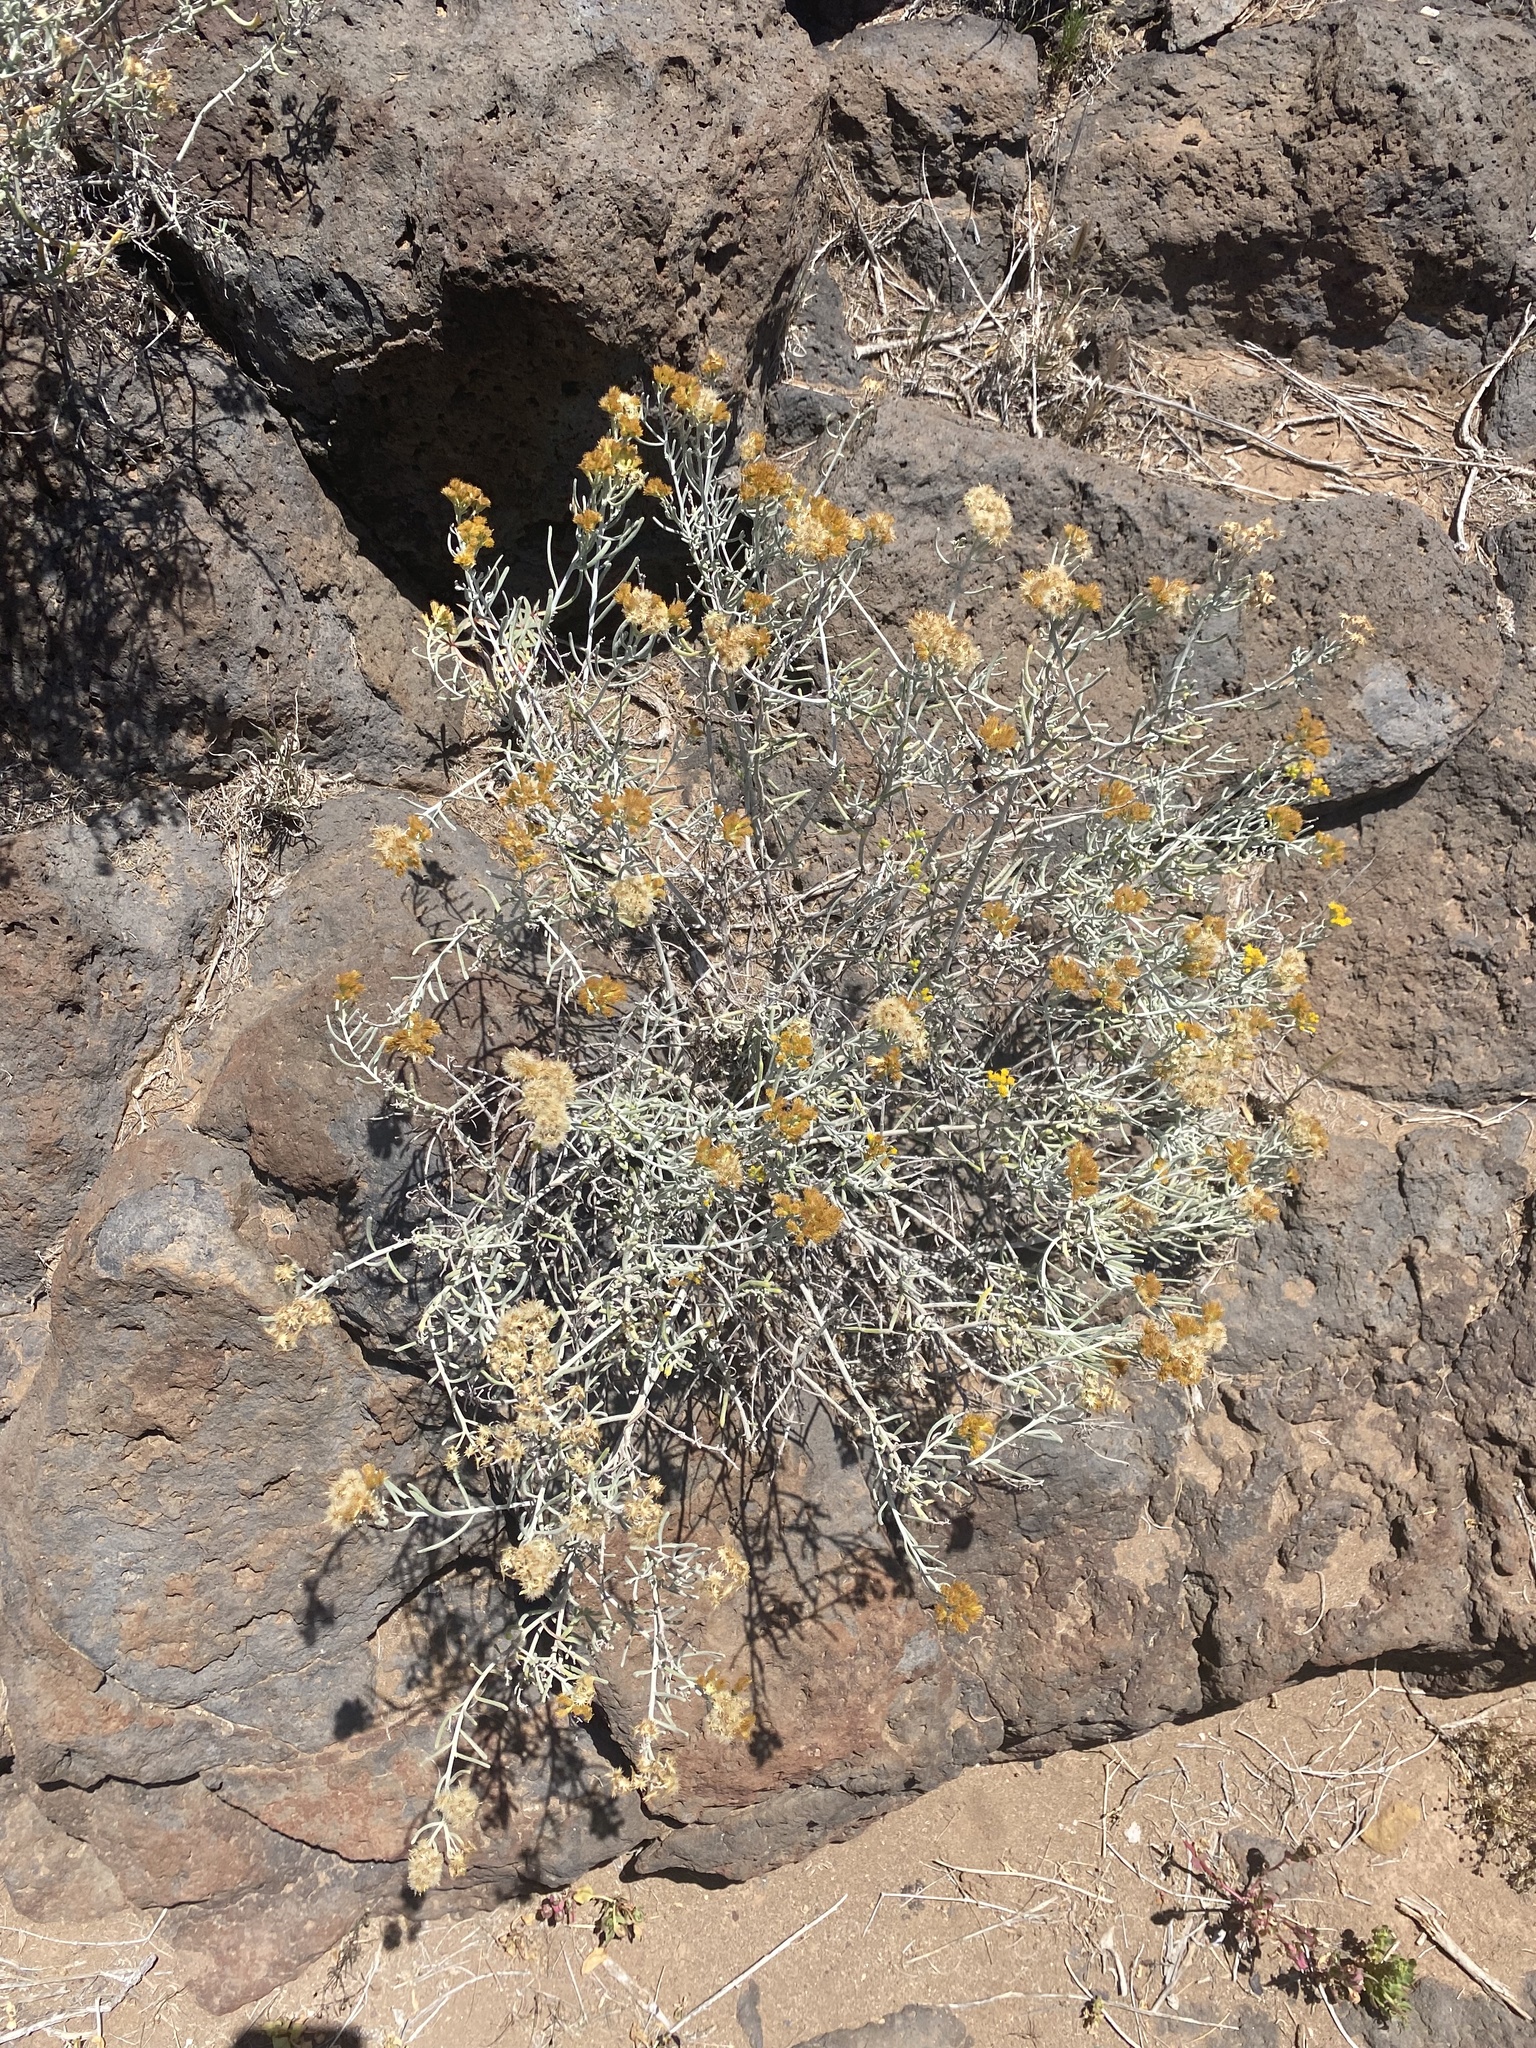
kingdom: Plantae
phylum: Tracheophyta
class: Magnoliopsida
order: Asterales
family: Asteraceae
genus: Schizogyne
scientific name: Schizogyne sericea
